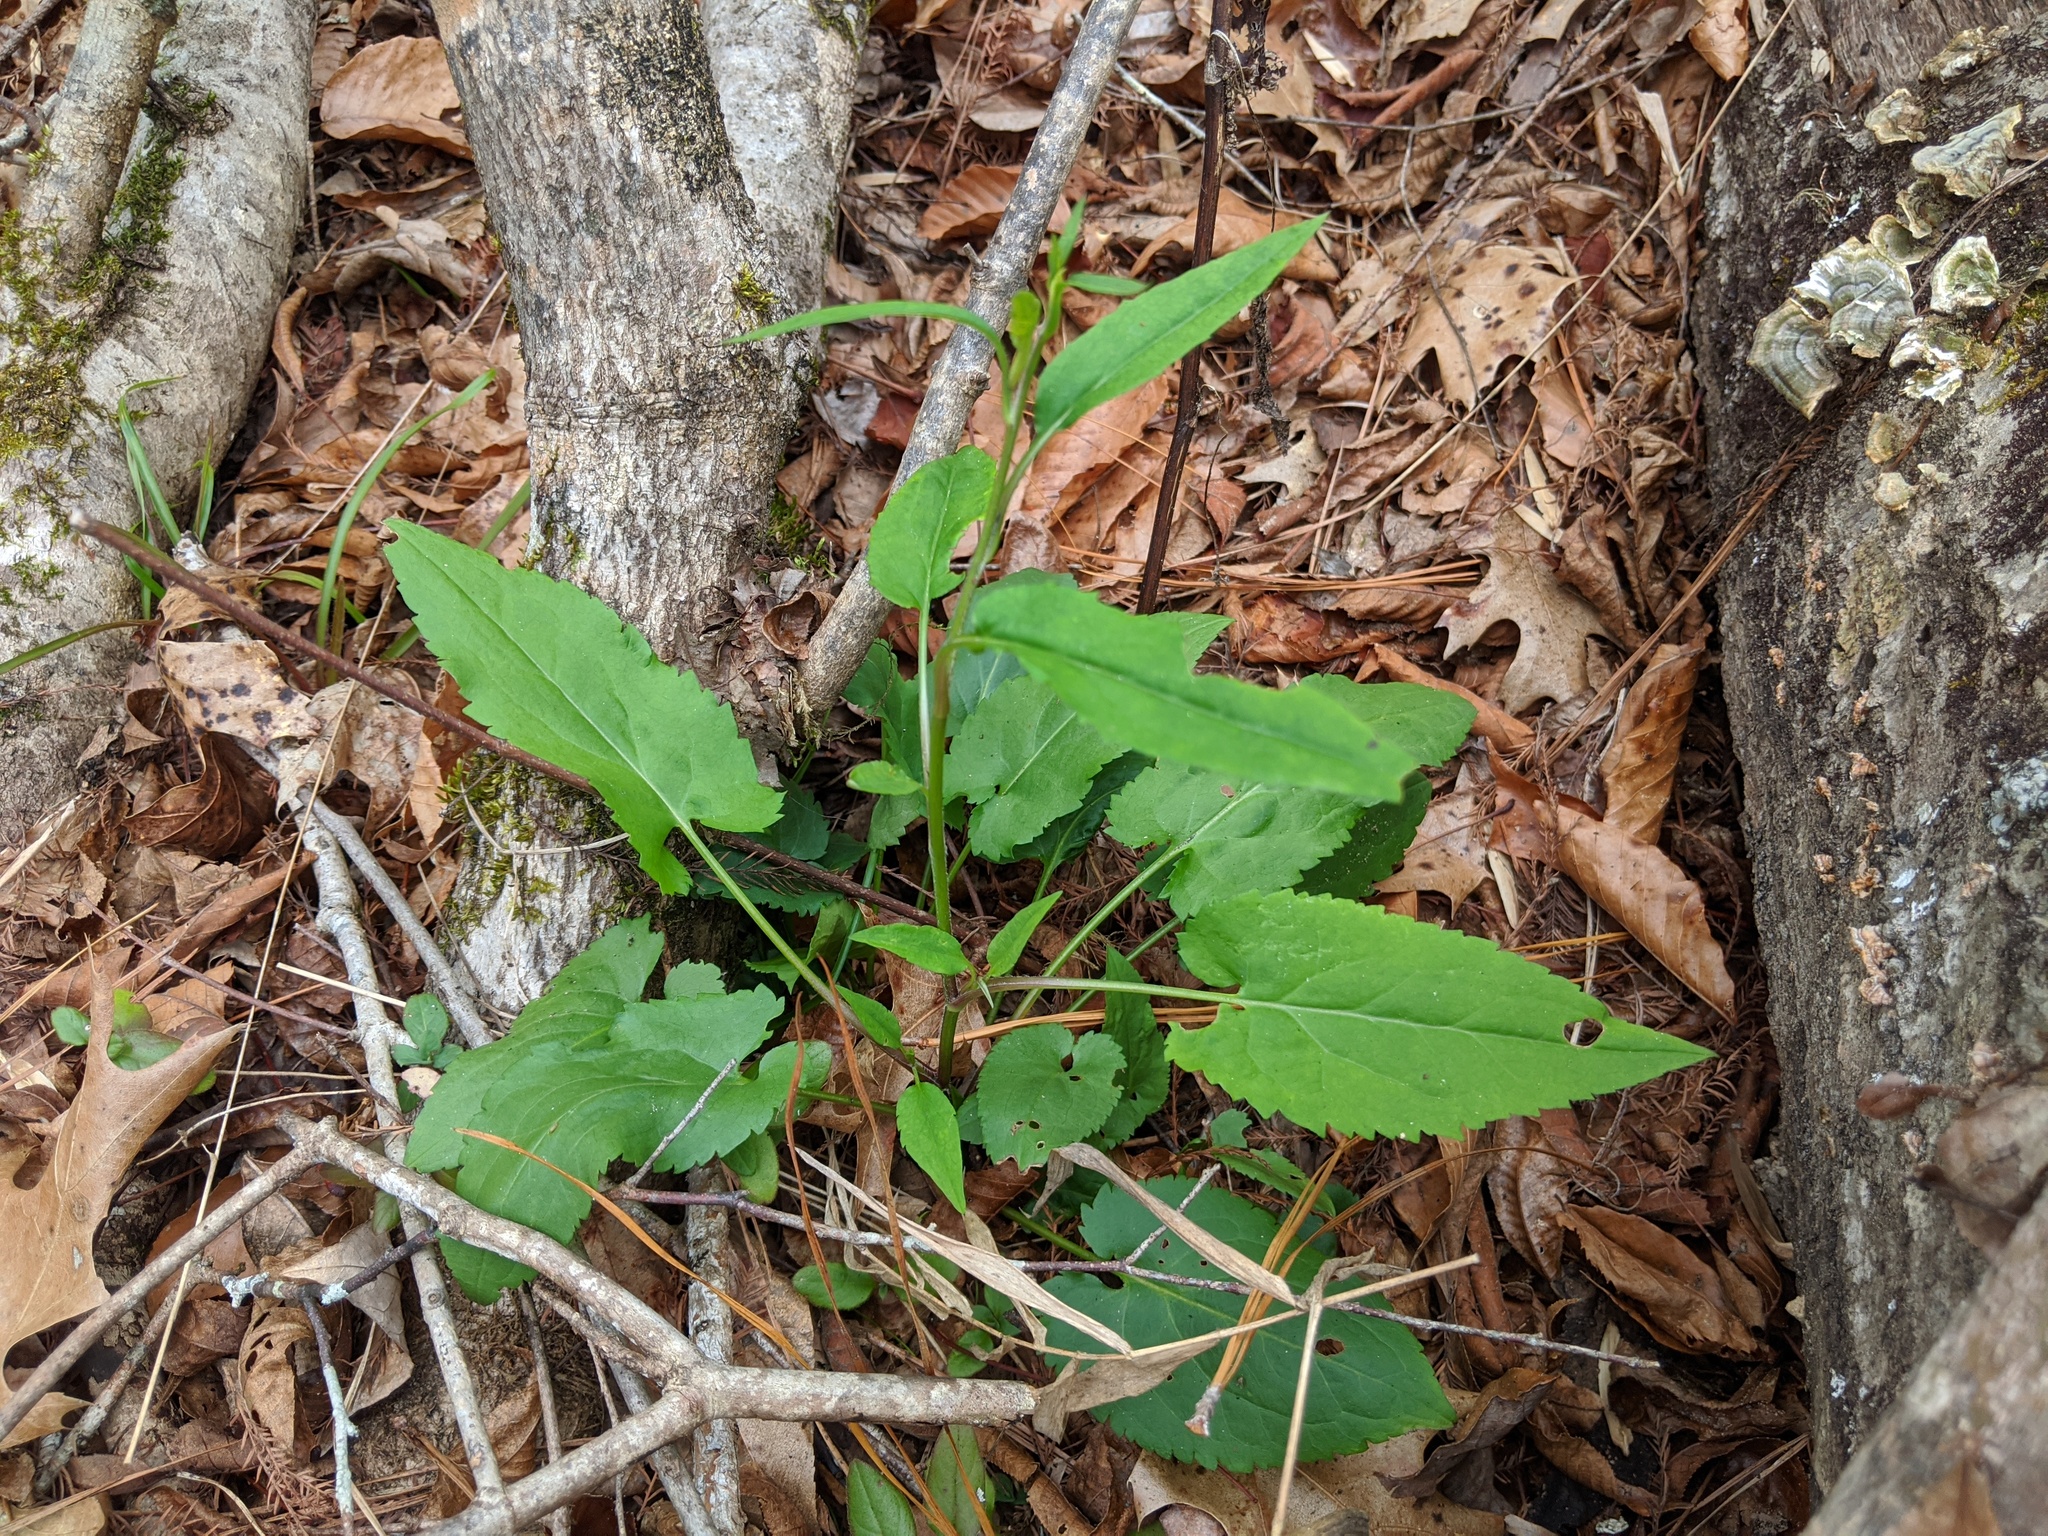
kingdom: Plantae
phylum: Tracheophyta
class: Magnoliopsida
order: Asterales
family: Asteraceae
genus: Symphyotrichum
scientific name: Symphyotrichum cordifolium
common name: Beeweed
